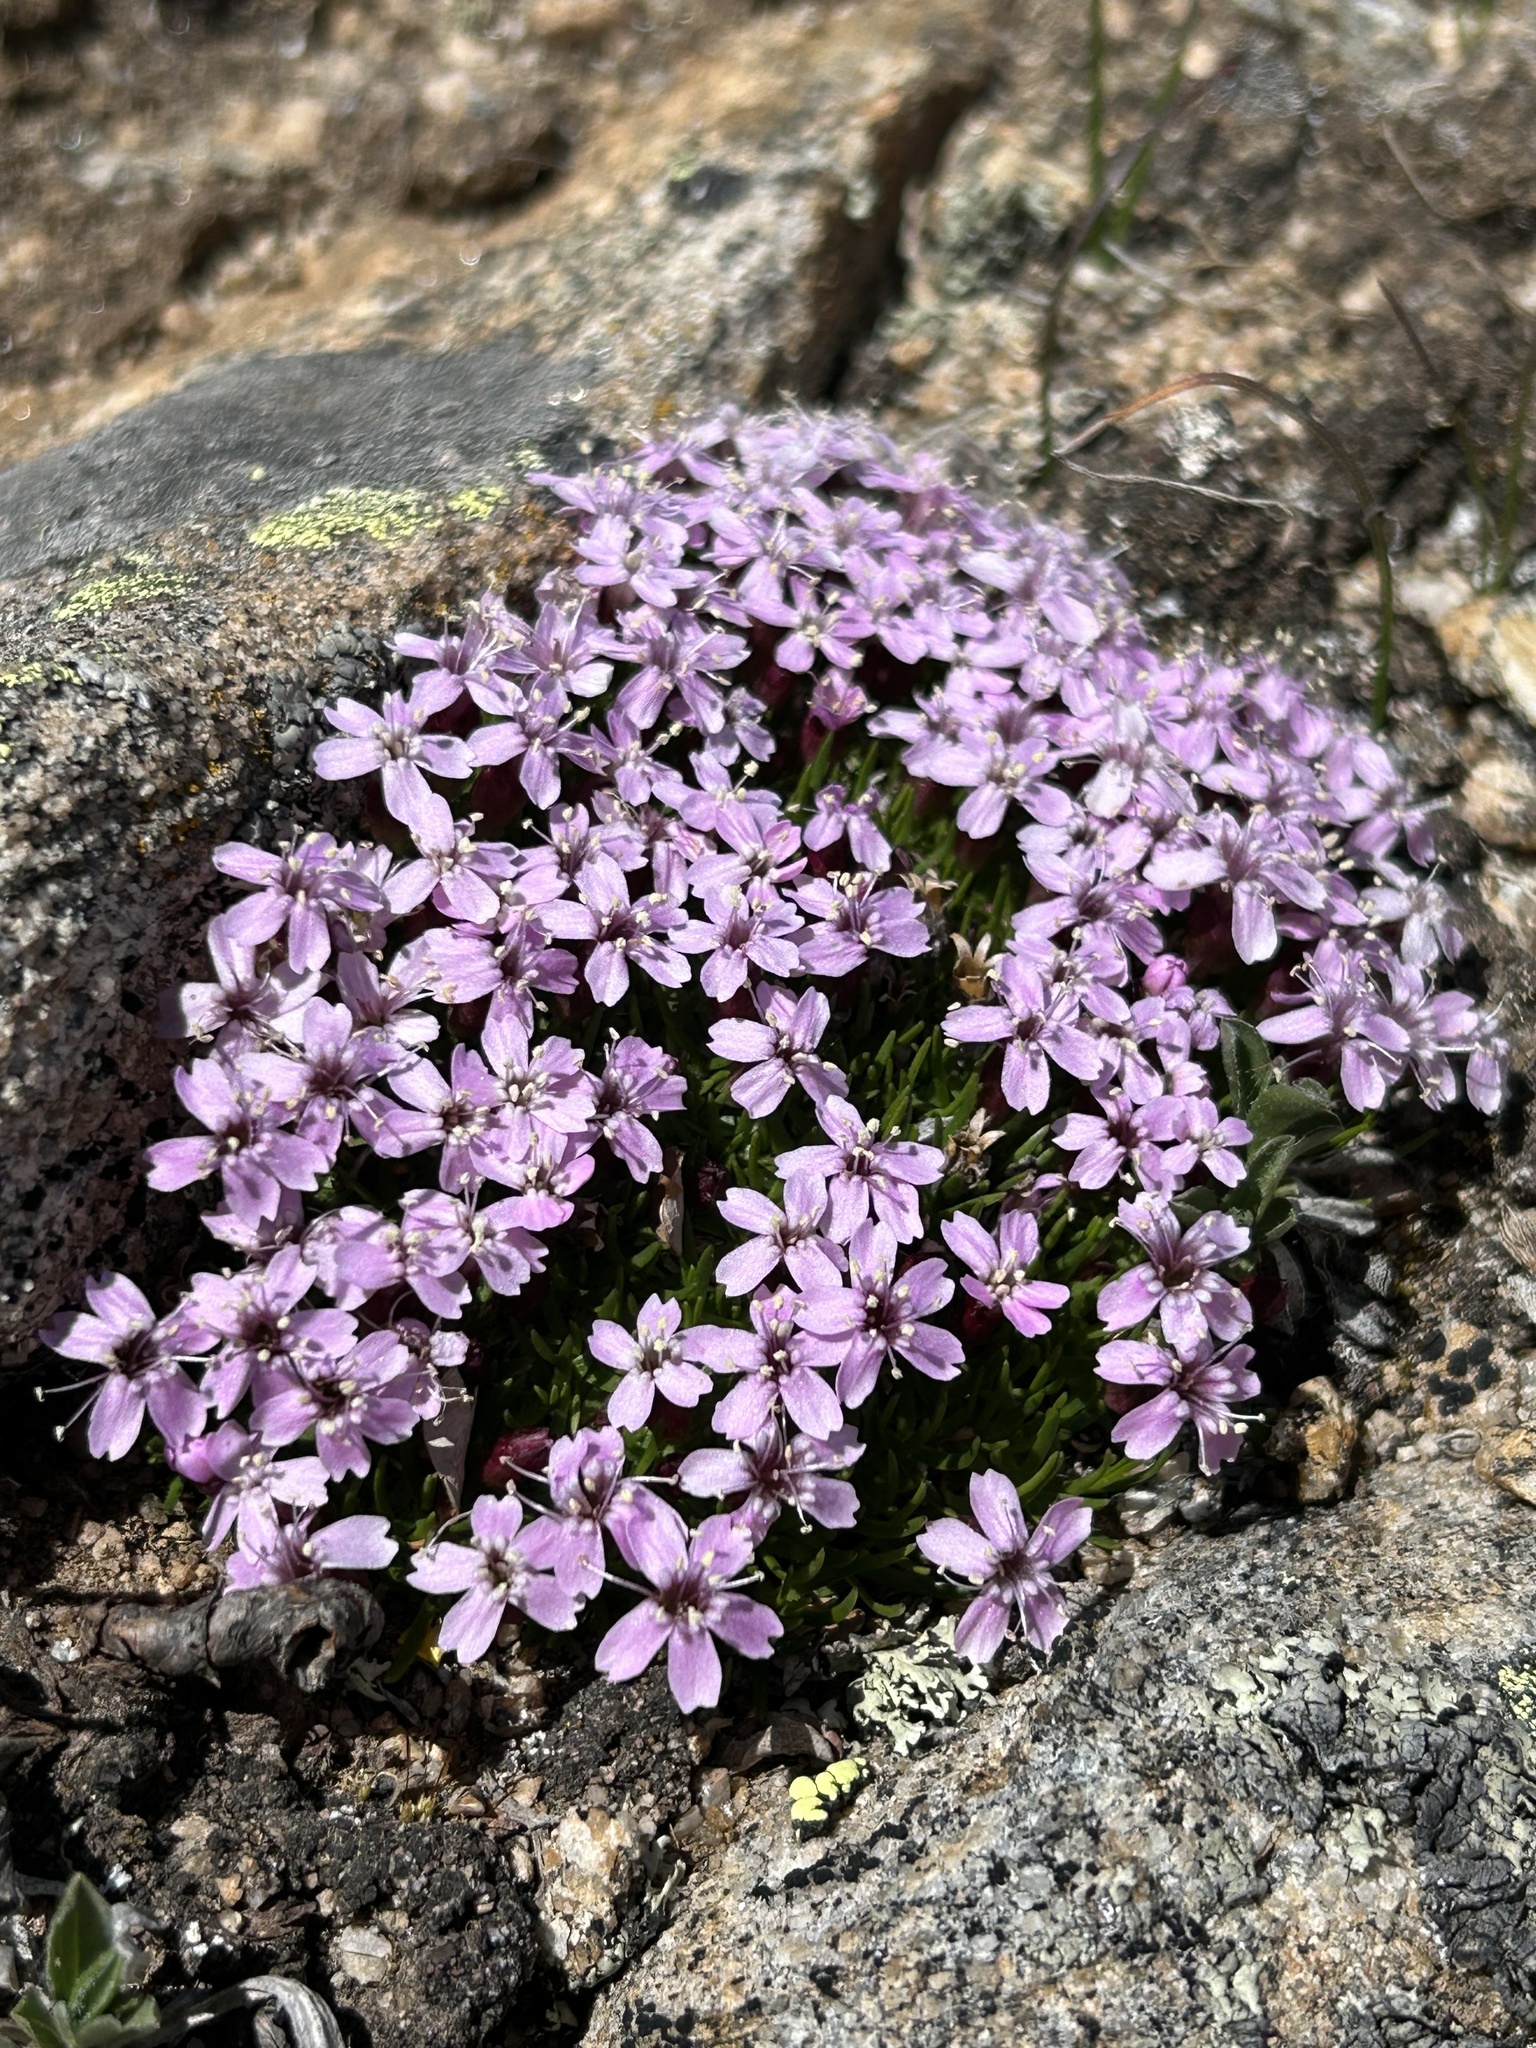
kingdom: Plantae
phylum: Tracheophyta
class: Magnoliopsida
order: Caryophyllales
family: Caryophyllaceae
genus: Silene
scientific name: Silene acaulis
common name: Moss campion
